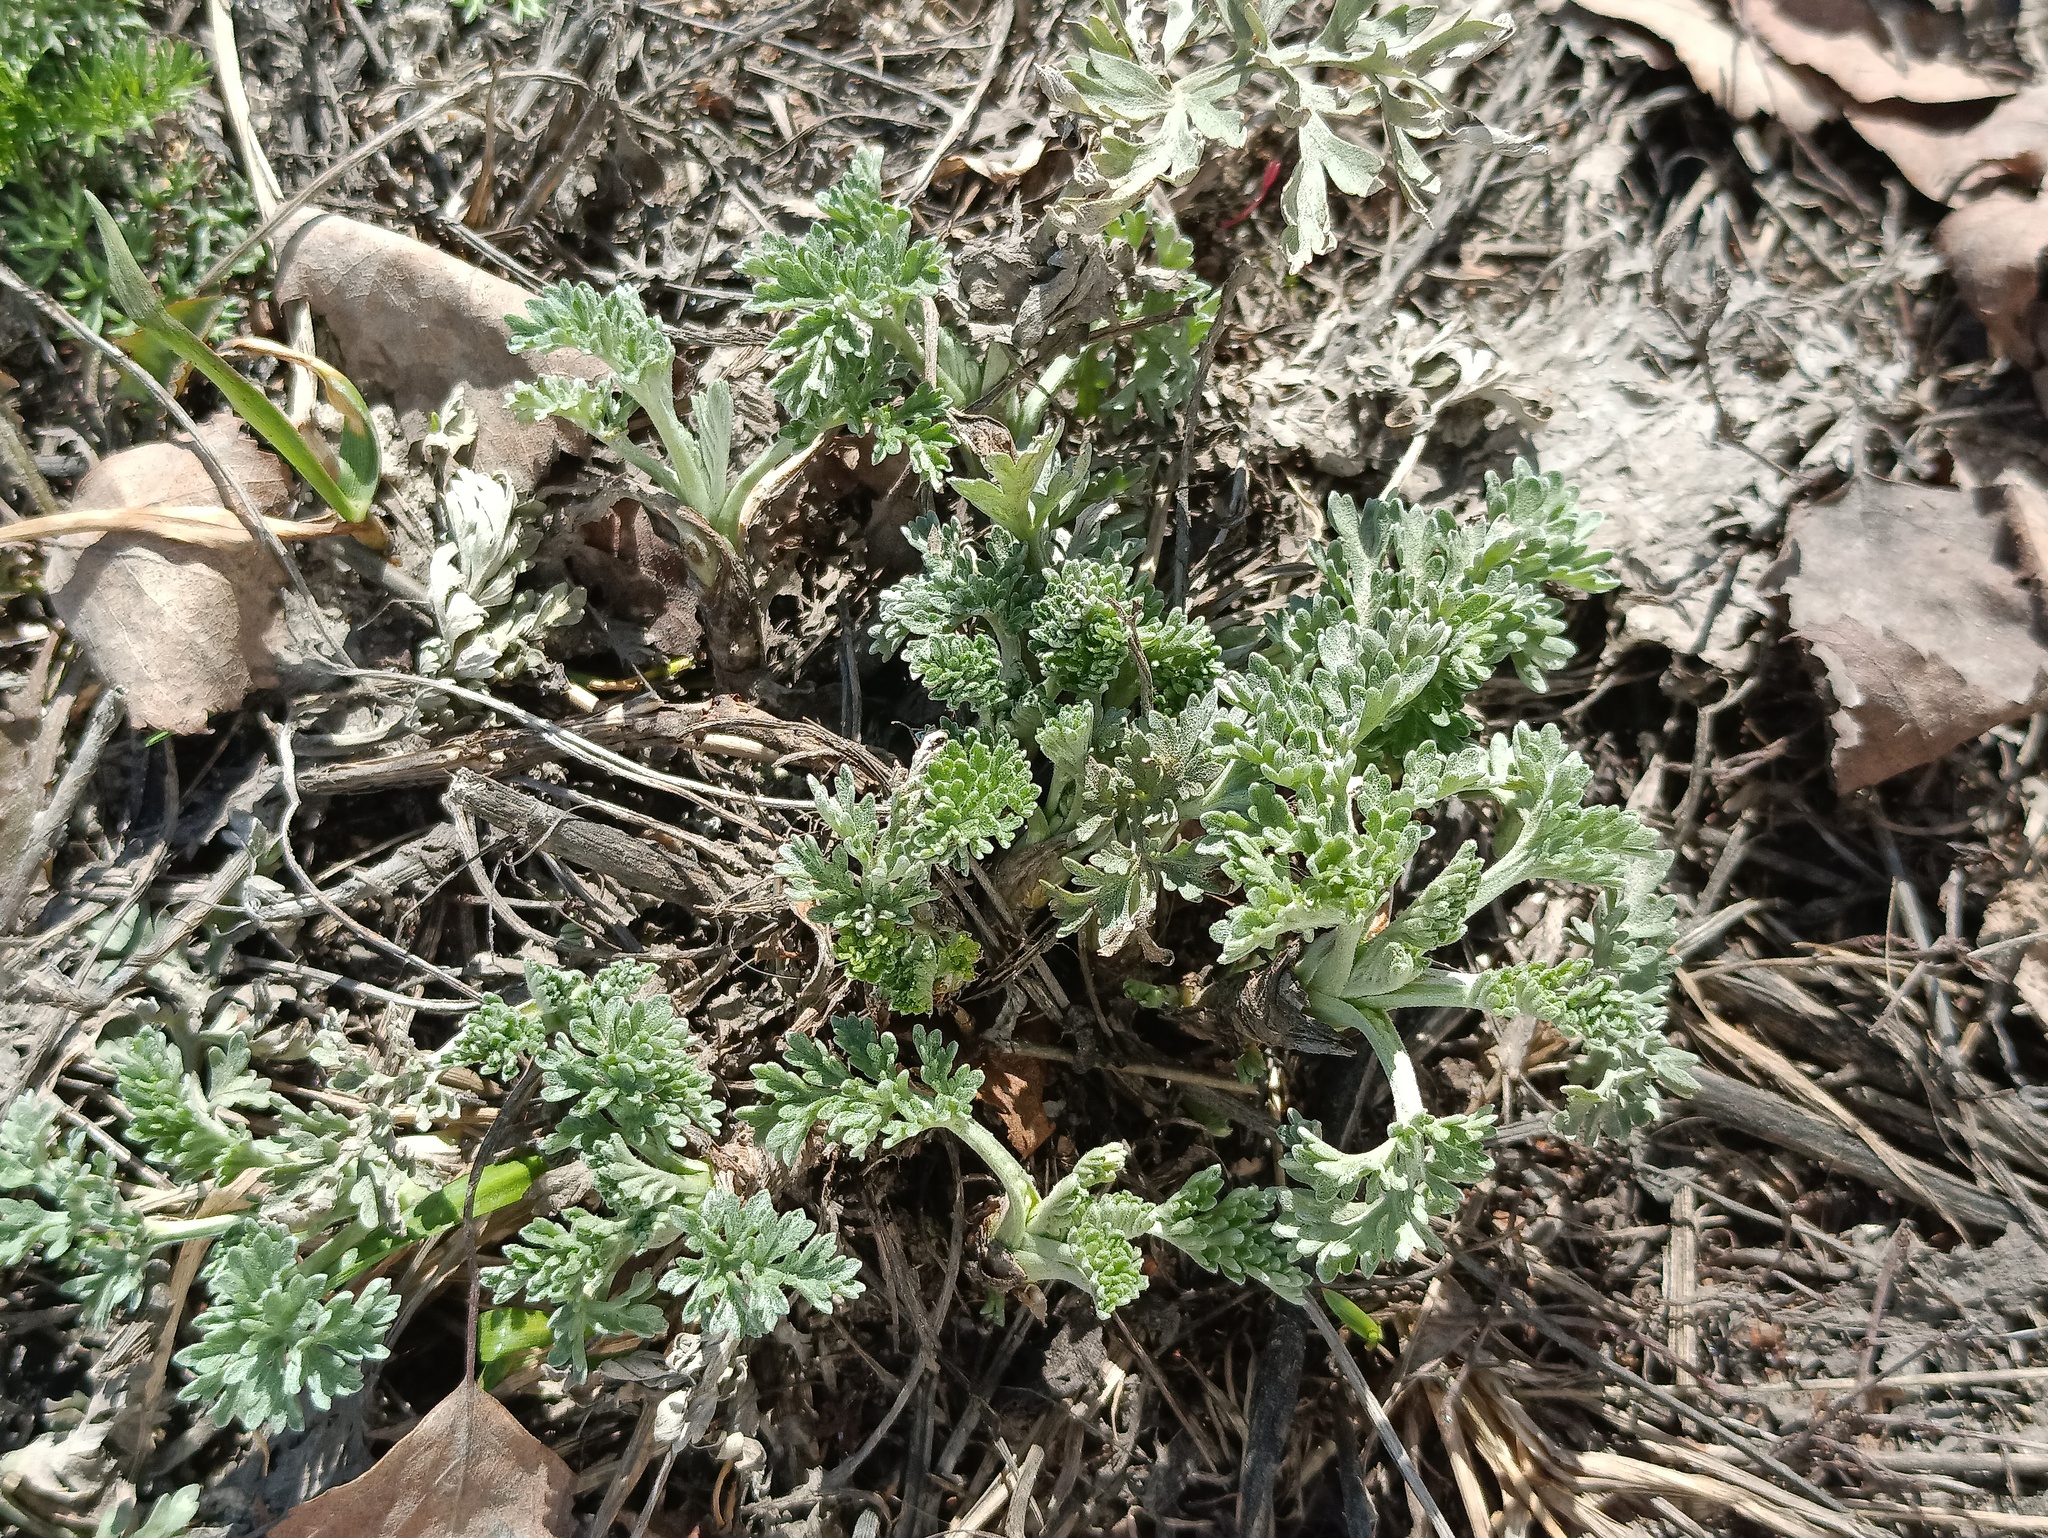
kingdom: Plantae
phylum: Tracheophyta
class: Magnoliopsida
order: Asterales
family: Asteraceae
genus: Artemisia
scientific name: Artemisia absinthium
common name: Wormwood
